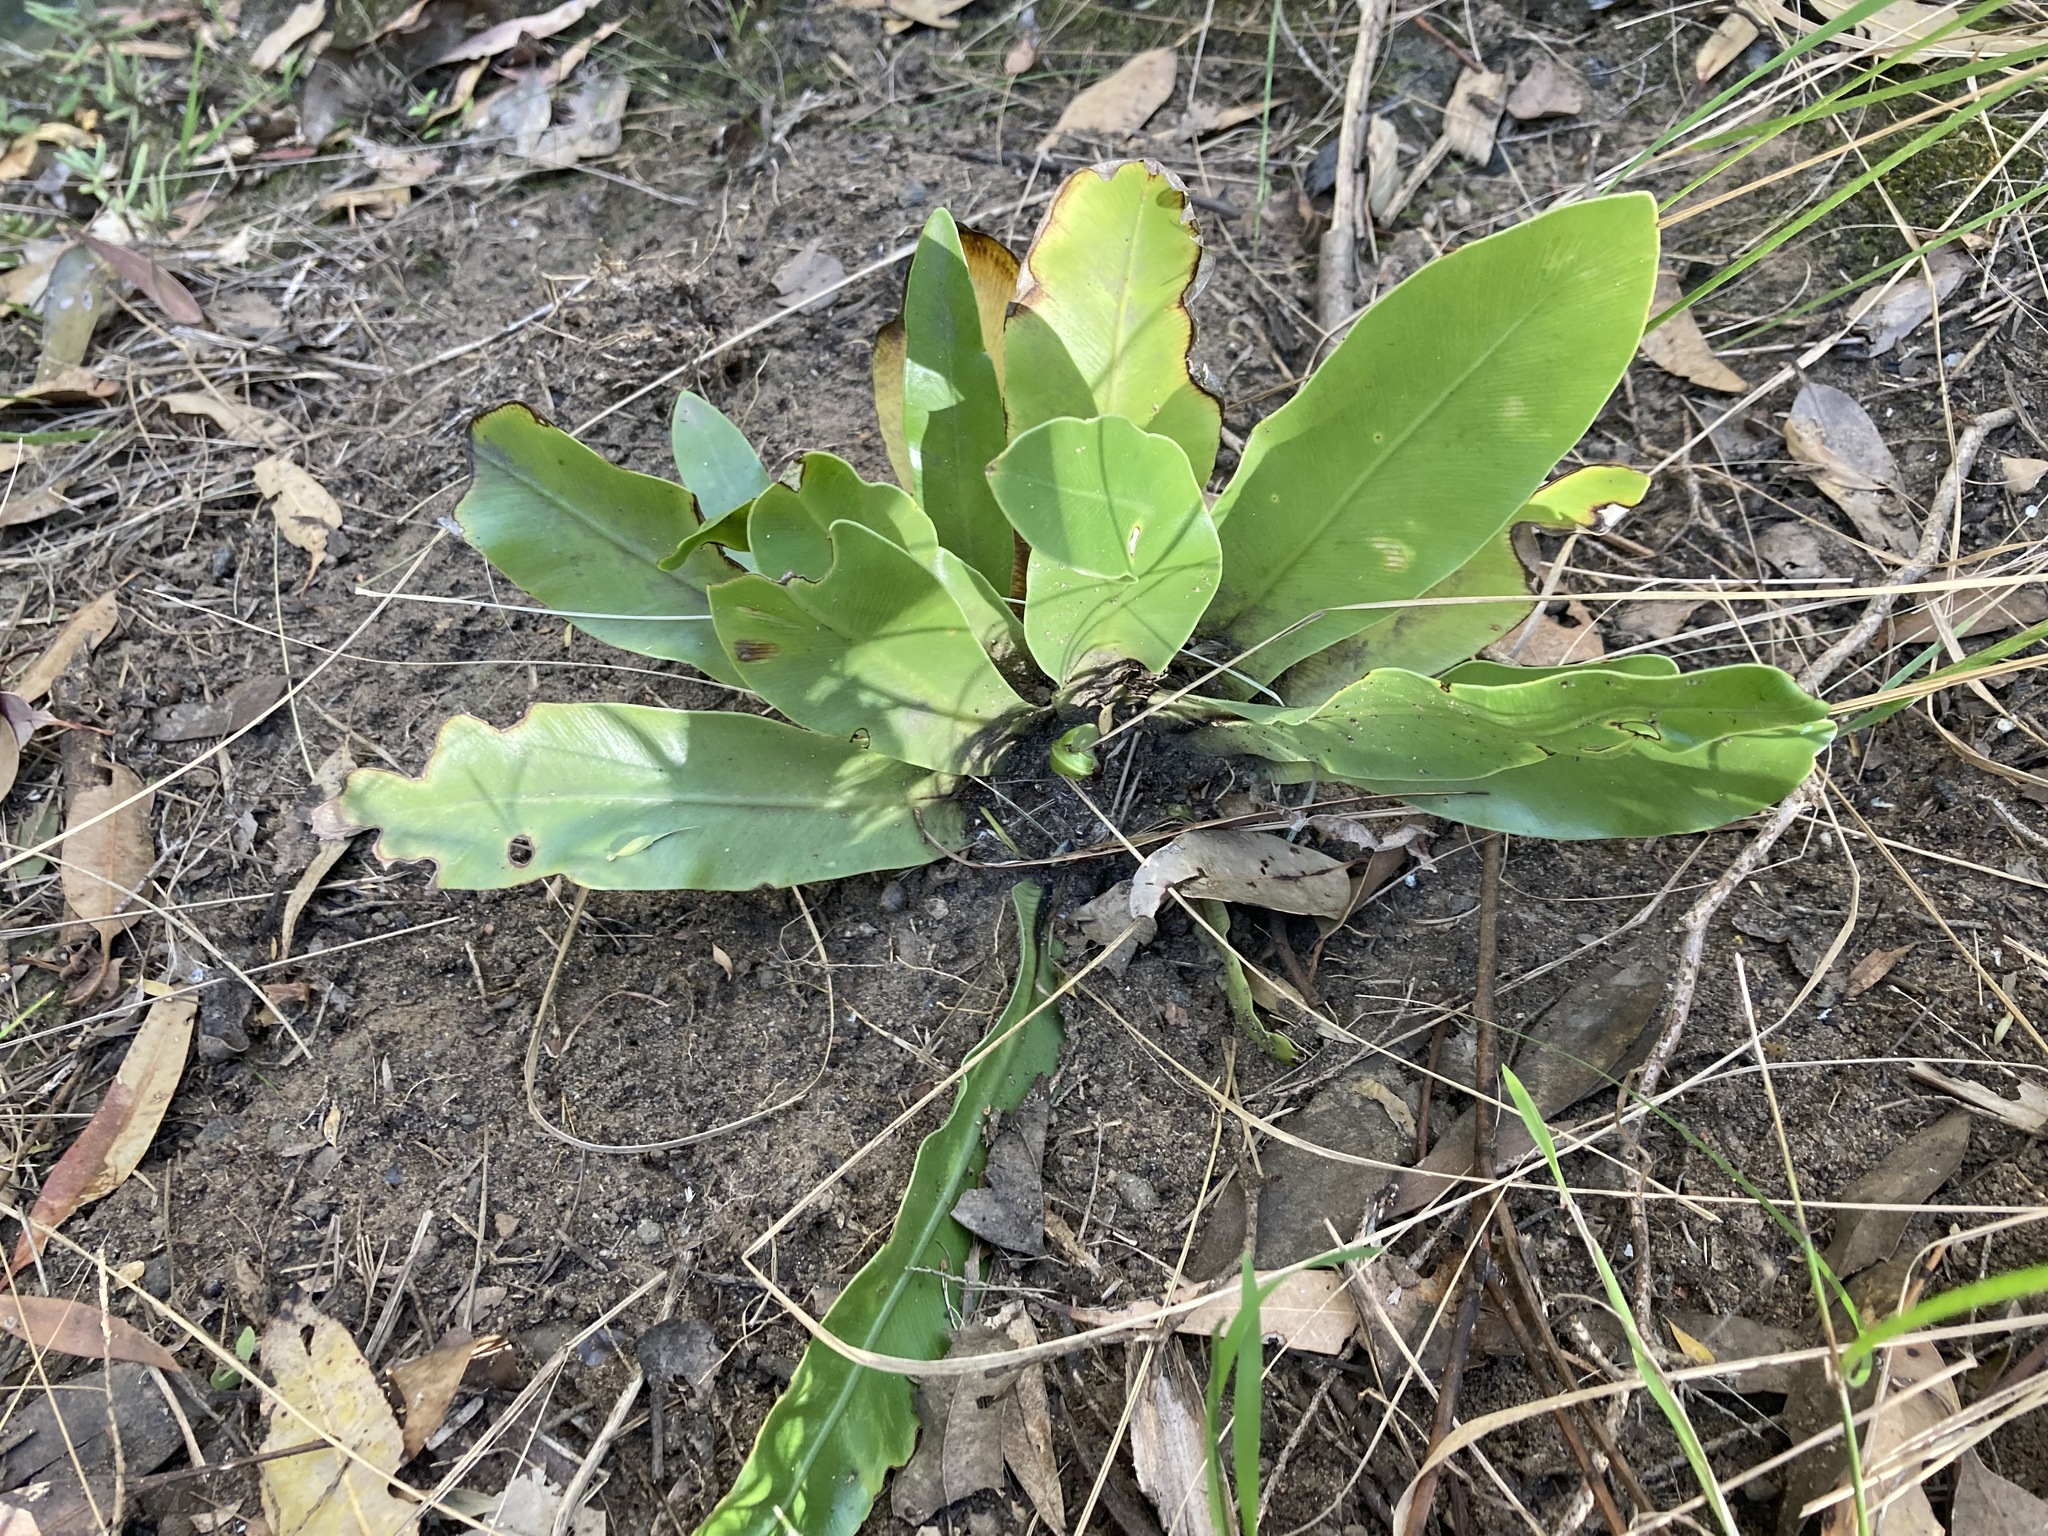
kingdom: Plantae
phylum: Tracheophyta
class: Polypodiopsida
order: Polypodiales
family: Aspleniaceae
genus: Asplenium
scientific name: Asplenium australasicum
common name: Bird's-nest fern
